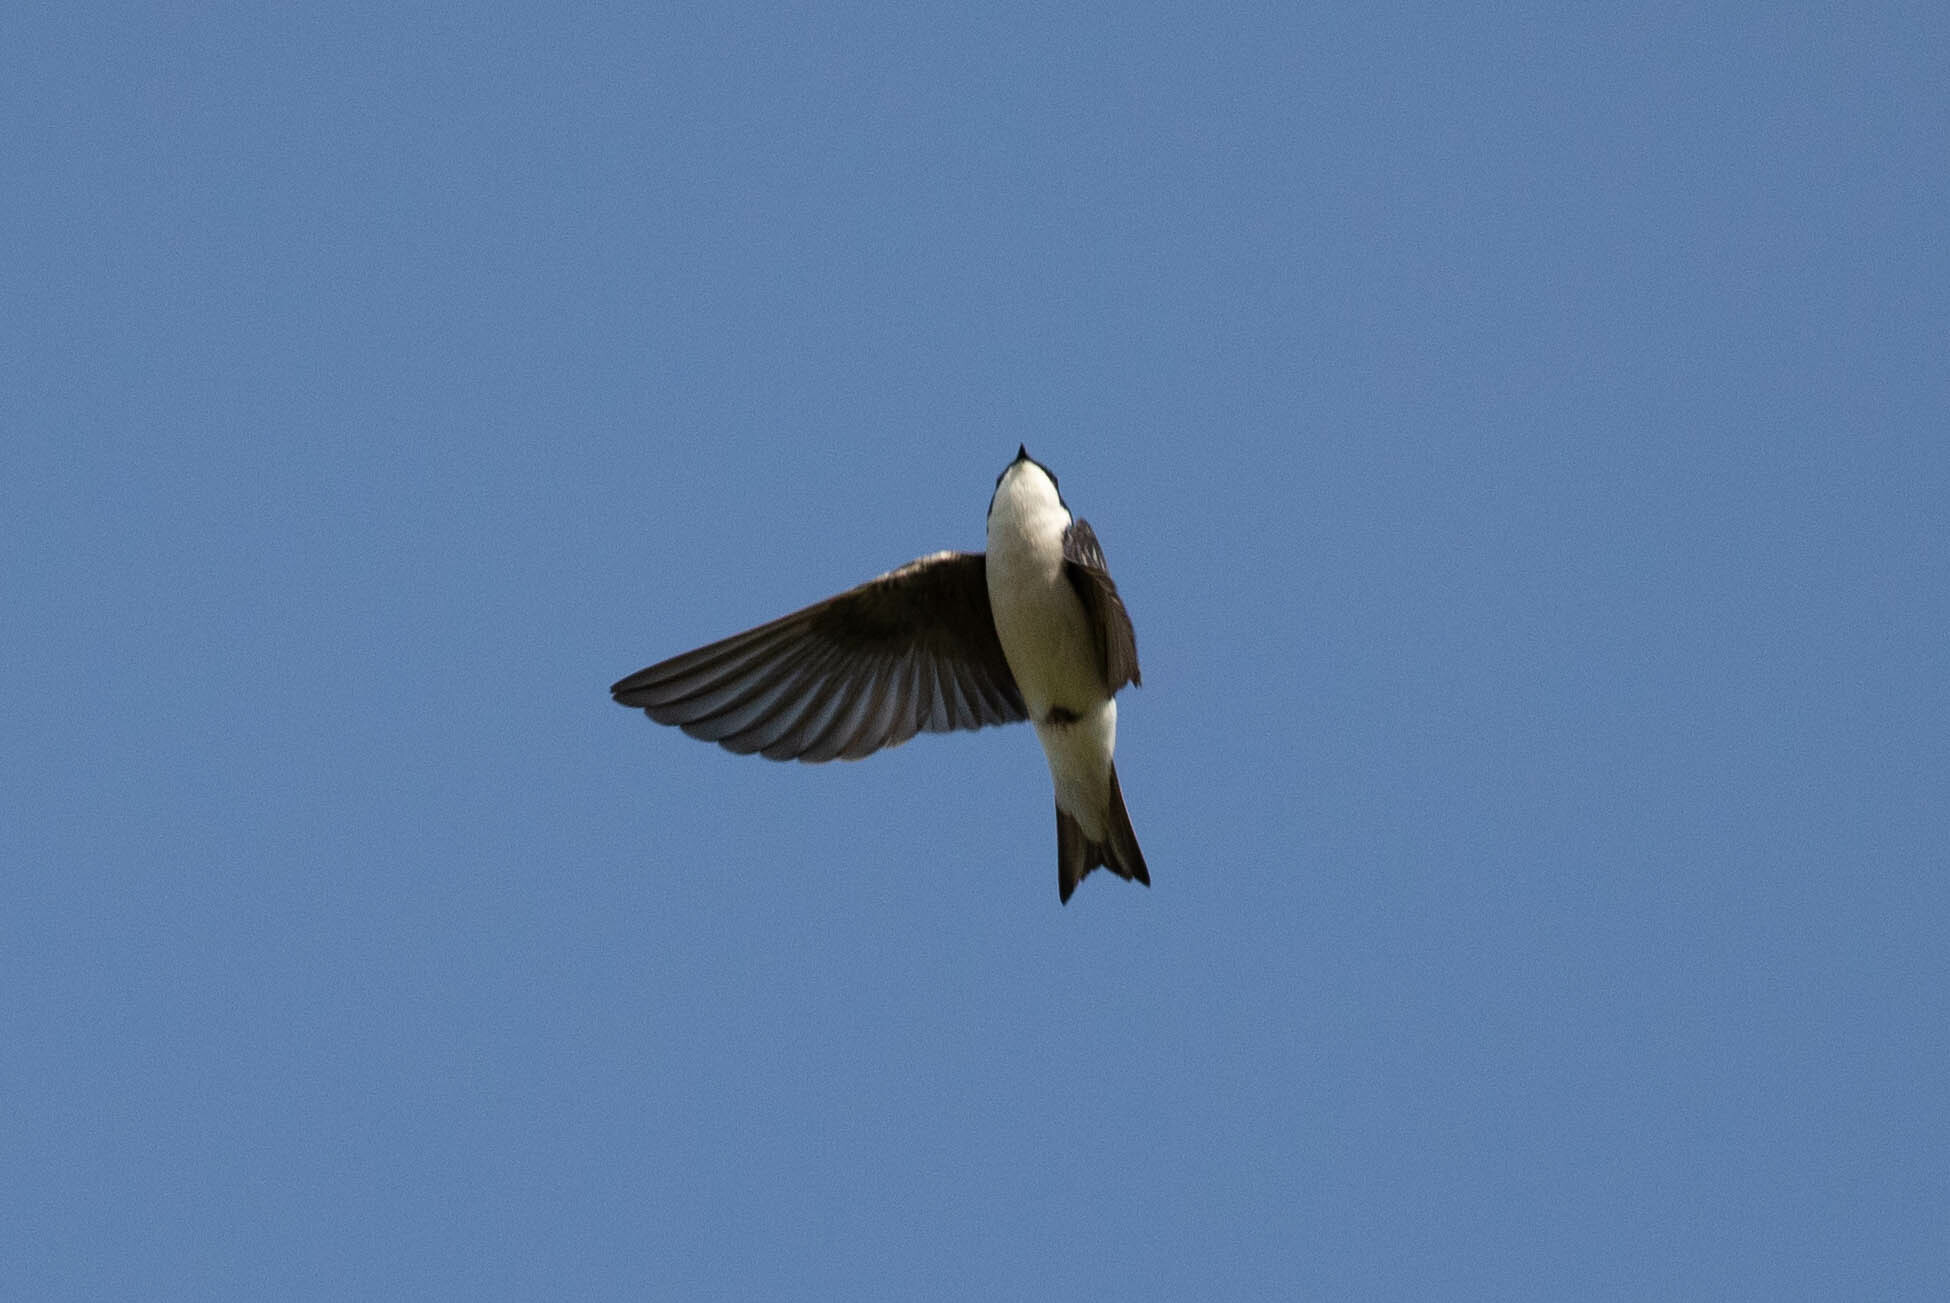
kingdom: Animalia
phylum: Chordata
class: Aves
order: Passeriformes
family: Hirundinidae
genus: Tachycineta
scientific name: Tachycineta bicolor
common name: Tree swallow
